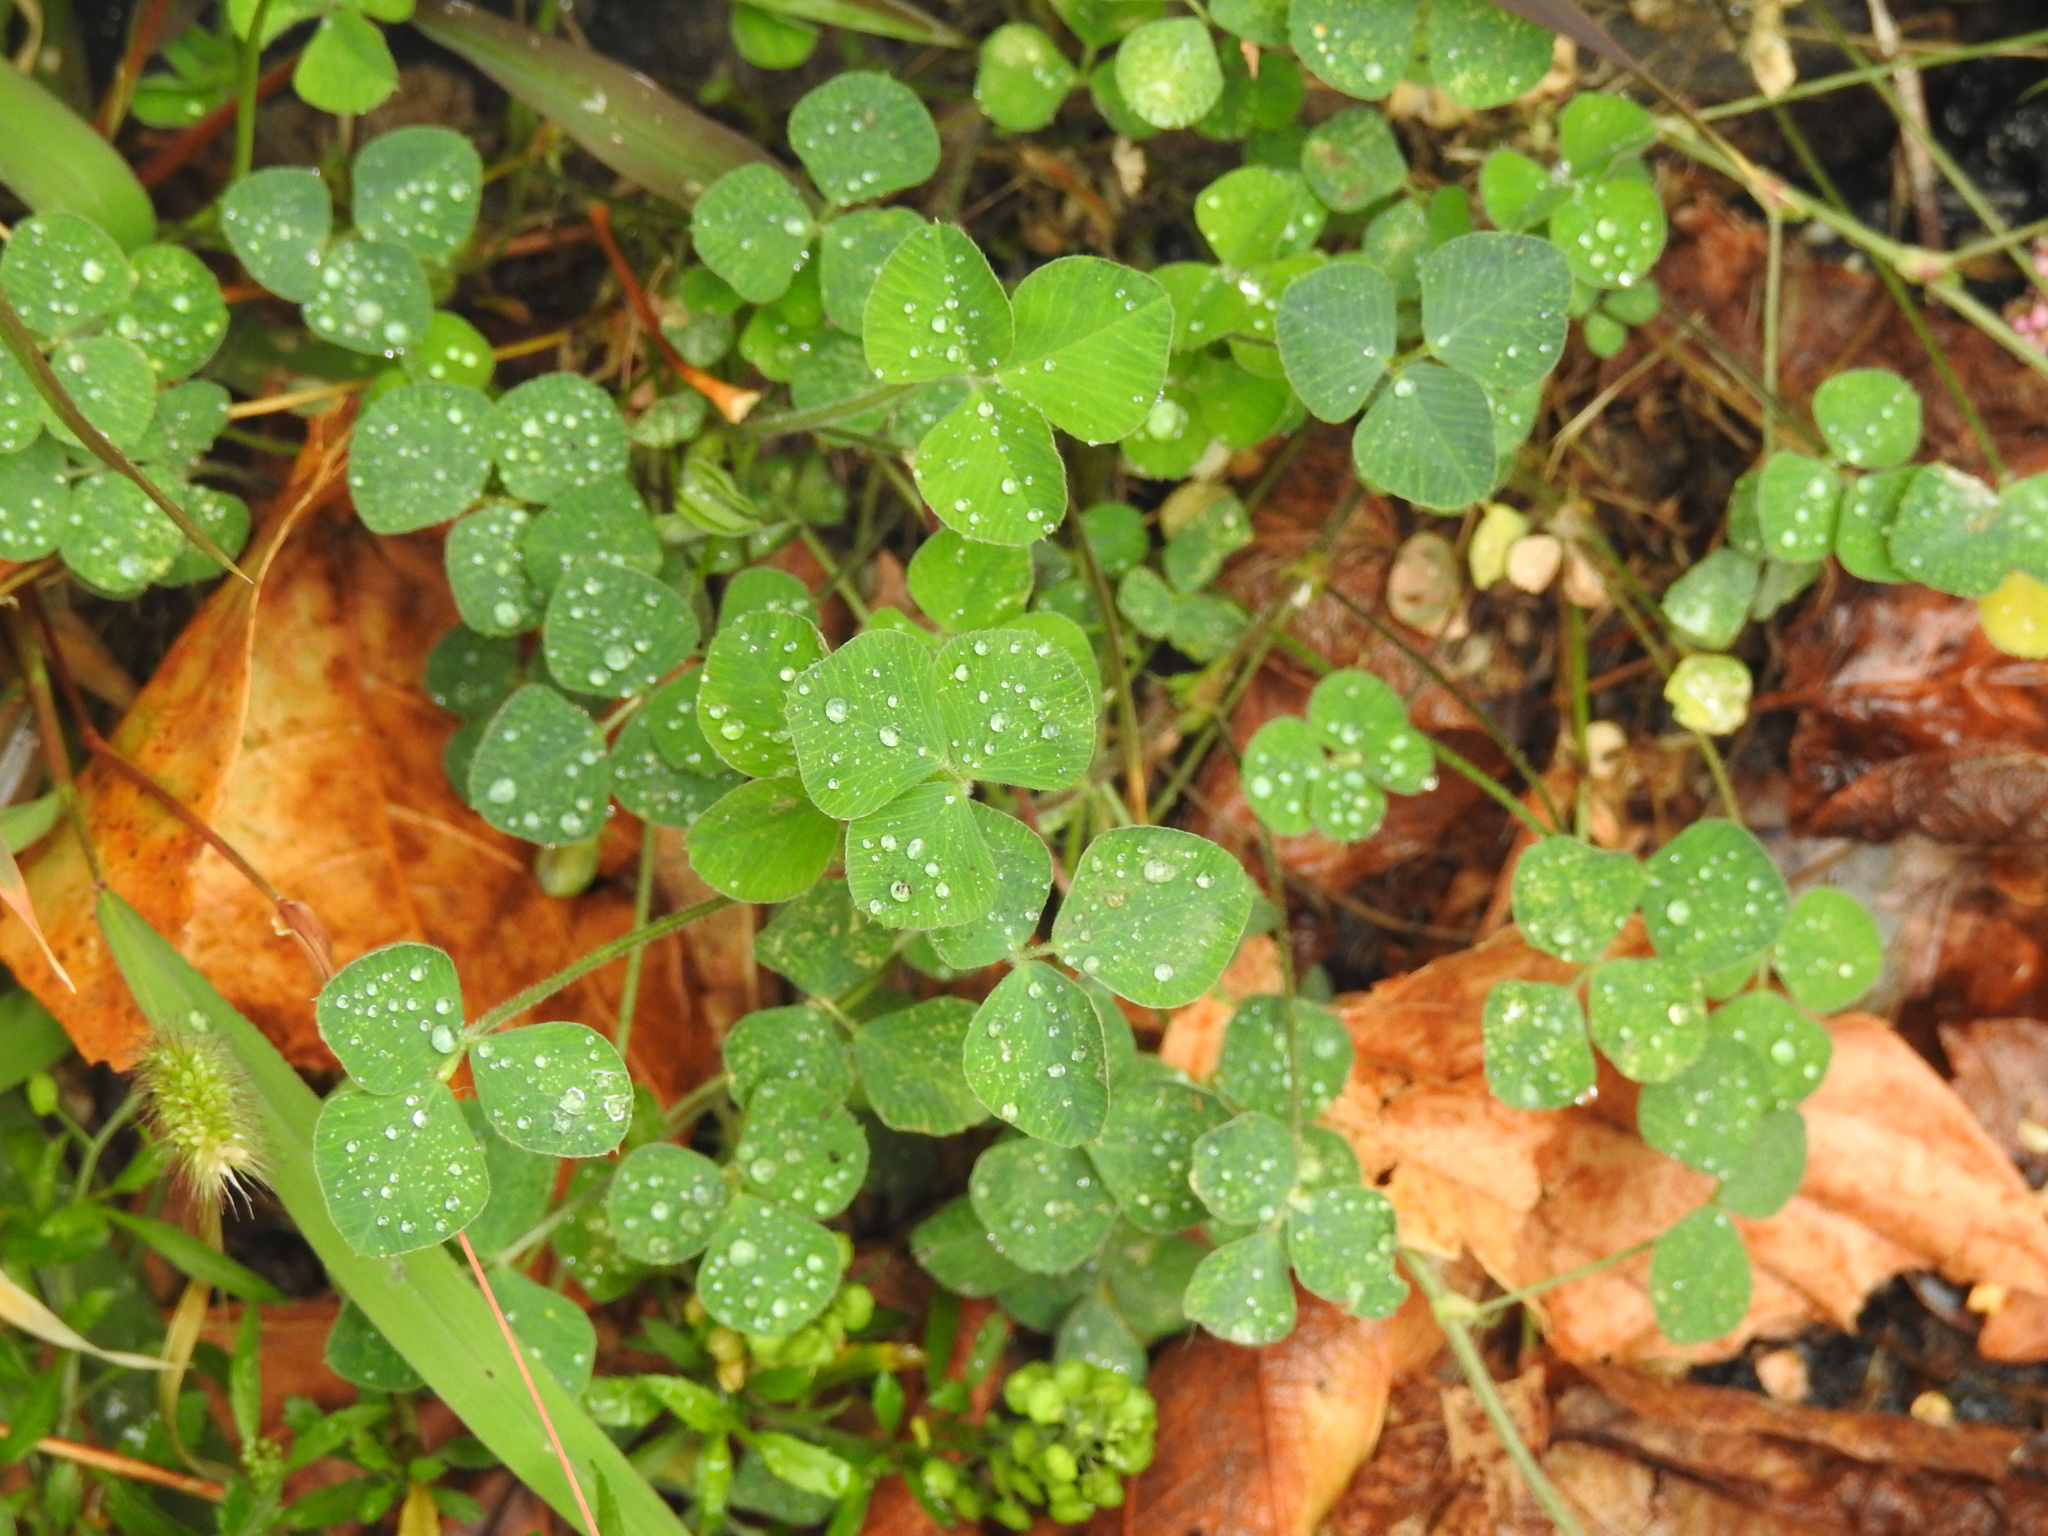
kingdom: Plantae
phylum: Tracheophyta
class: Magnoliopsida
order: Fabales
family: Fabaceae
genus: Medicago
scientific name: Medicago lupulina
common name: Black medick
